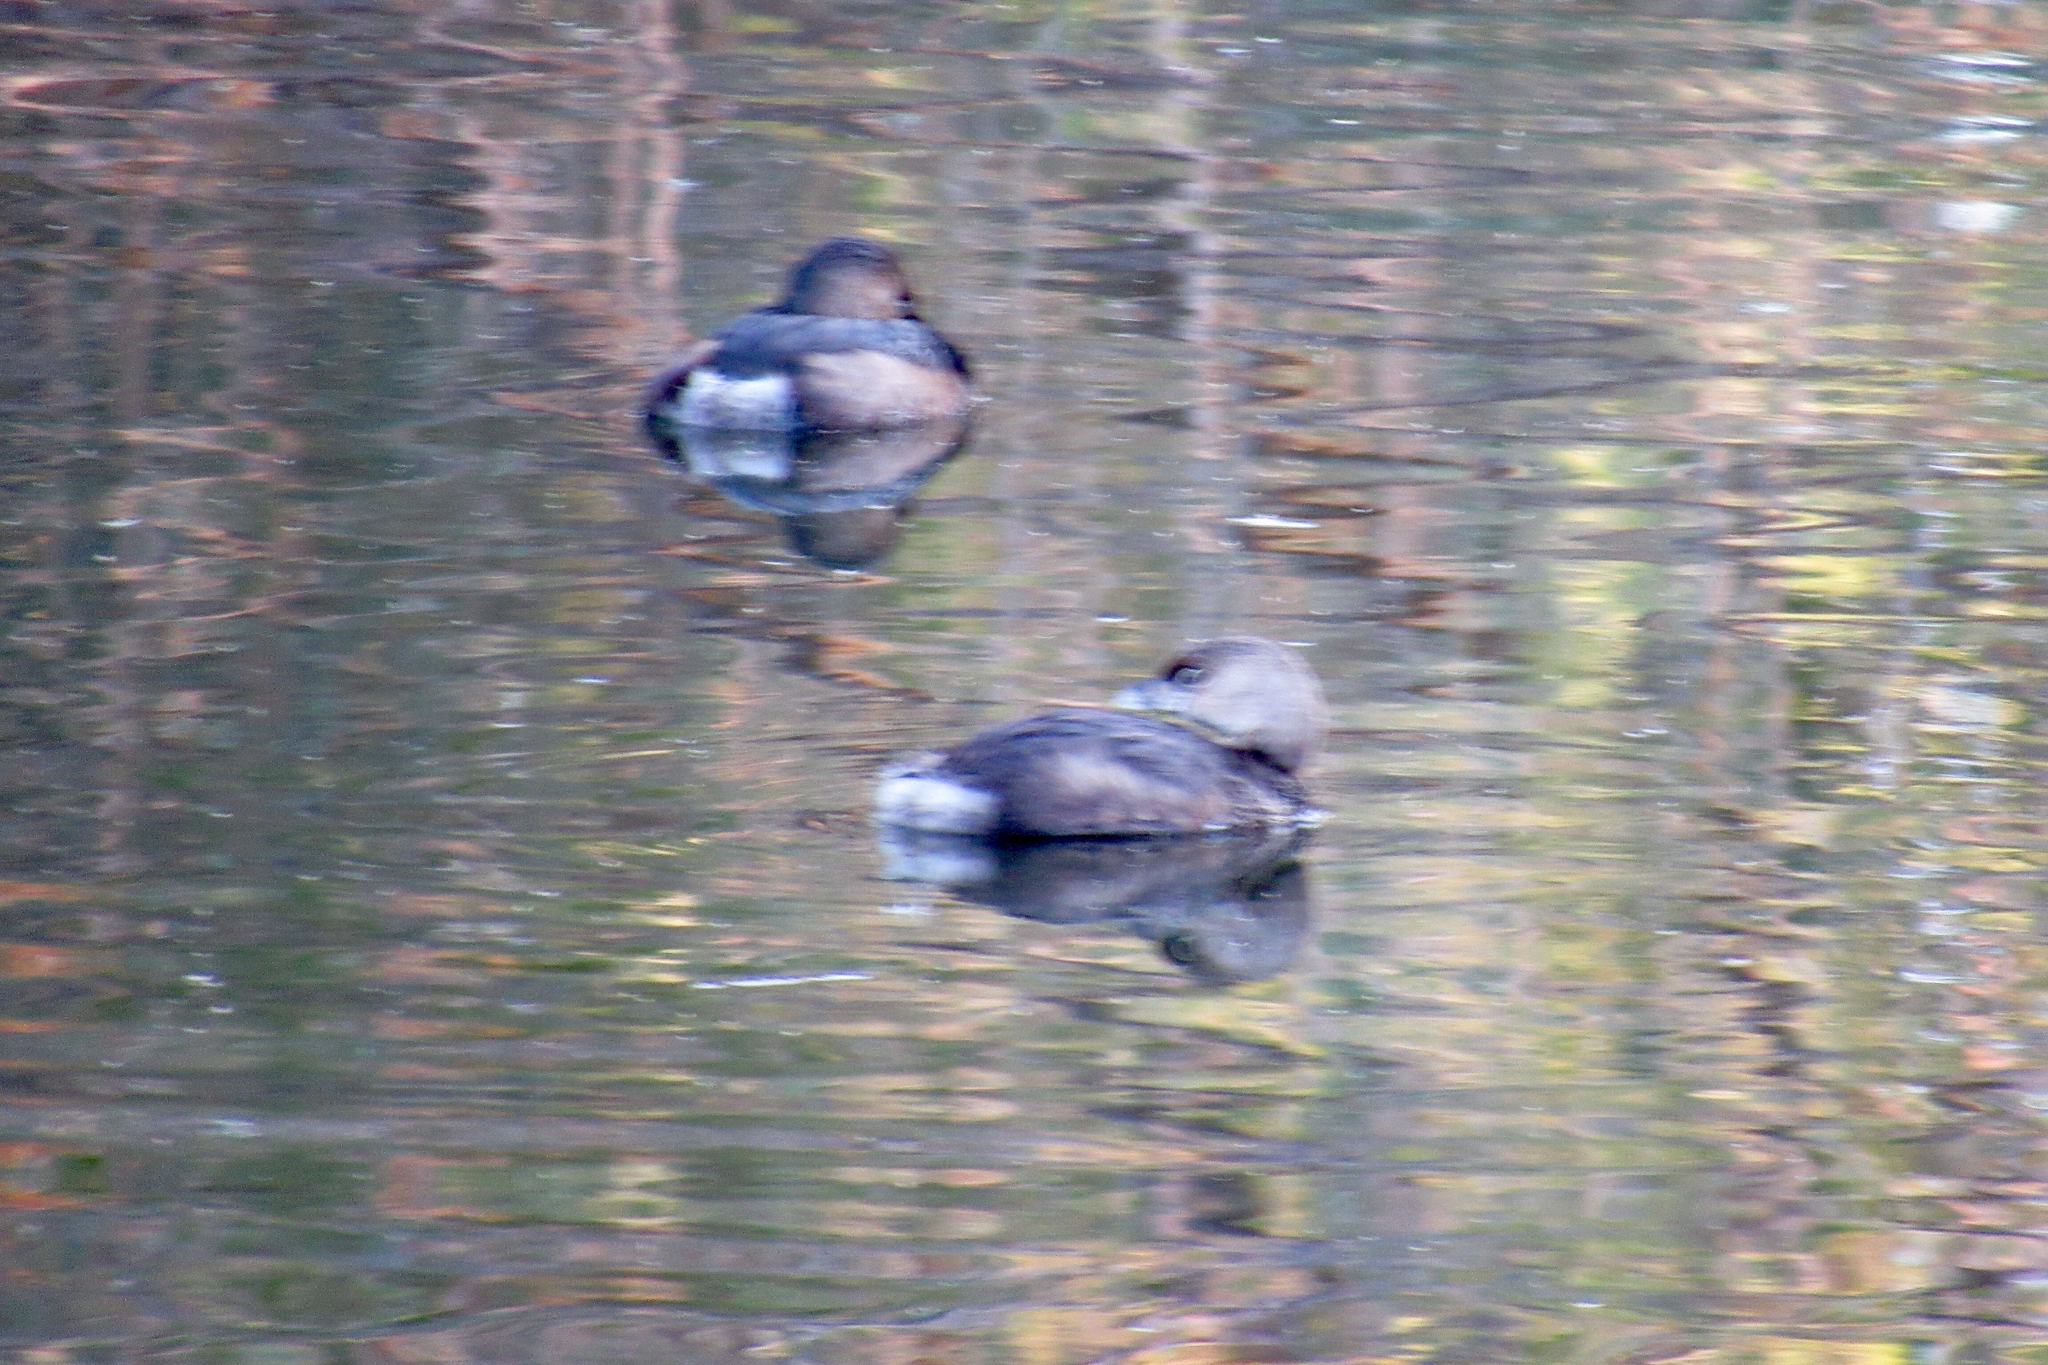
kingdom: Animalia
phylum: Chordata
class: Aves
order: Podicipediformes
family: Podicipedidae
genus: Podilymbus
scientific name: Podilymbus podiceps
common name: Pied-billed grebe
